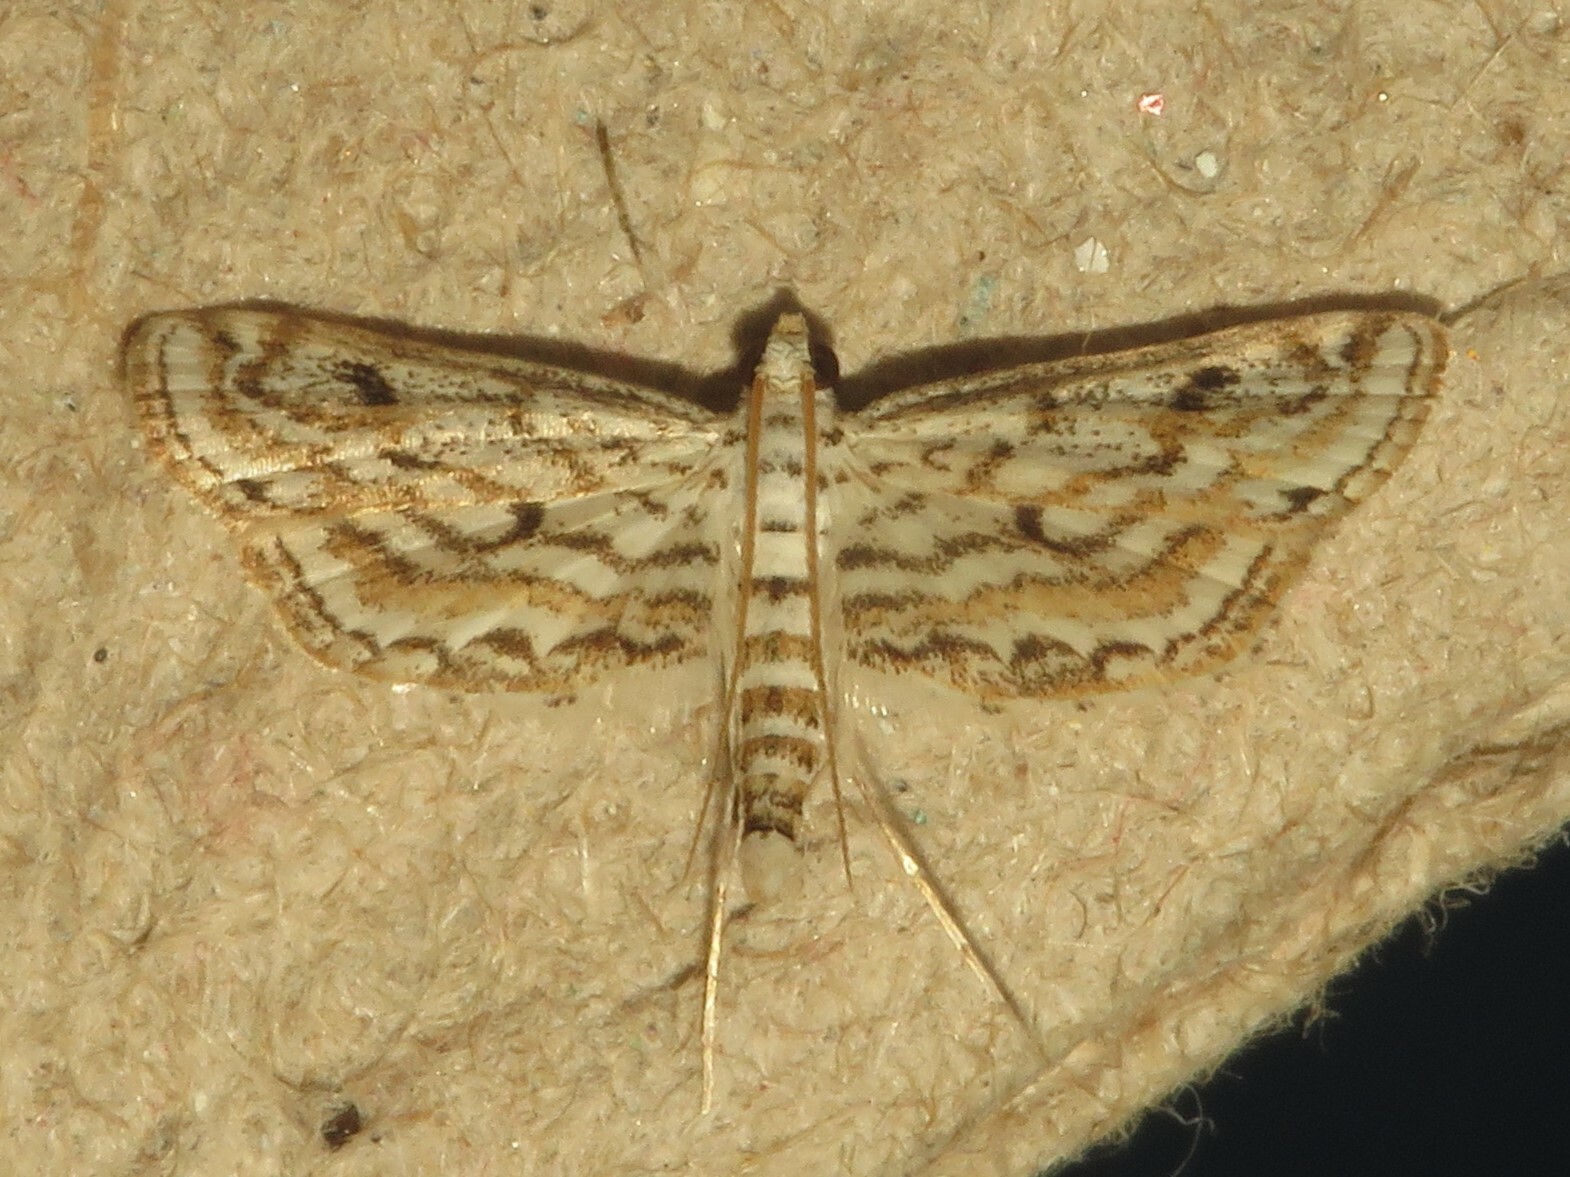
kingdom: Animalia
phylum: Arthropoda
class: Insecta
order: Lepidoptera
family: Crambidae
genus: Parapoynx
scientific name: Parapoynx allionealis
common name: Bladderwort casemaker
